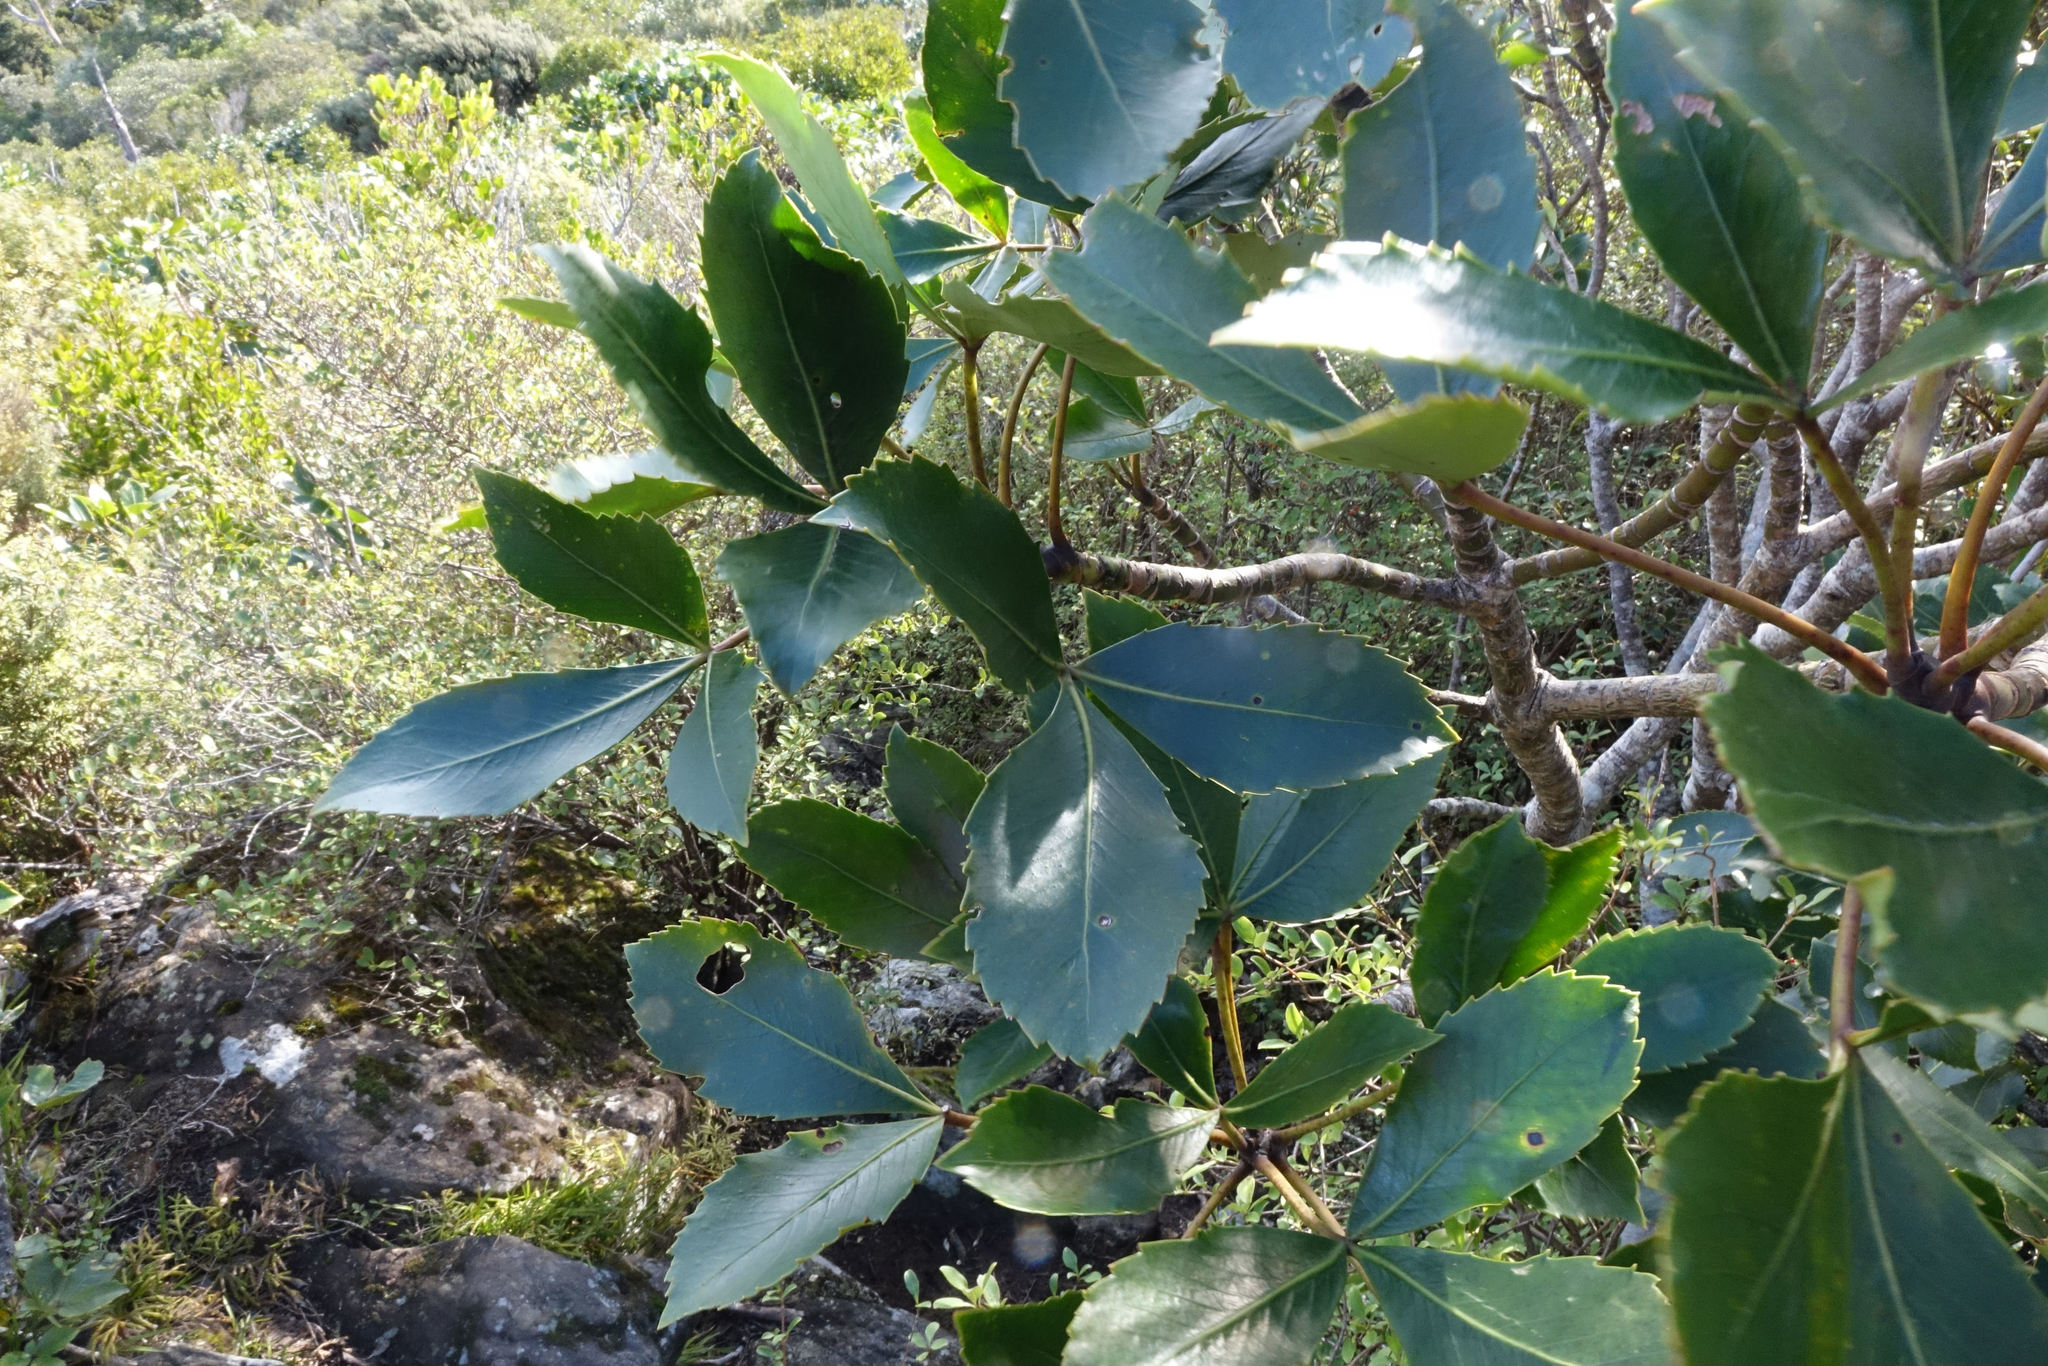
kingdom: Plantae
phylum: Tracheophyta
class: Magnoliopsida
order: Apiales
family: Araliaceae
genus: Neopanax
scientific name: Neopanax colensoi
